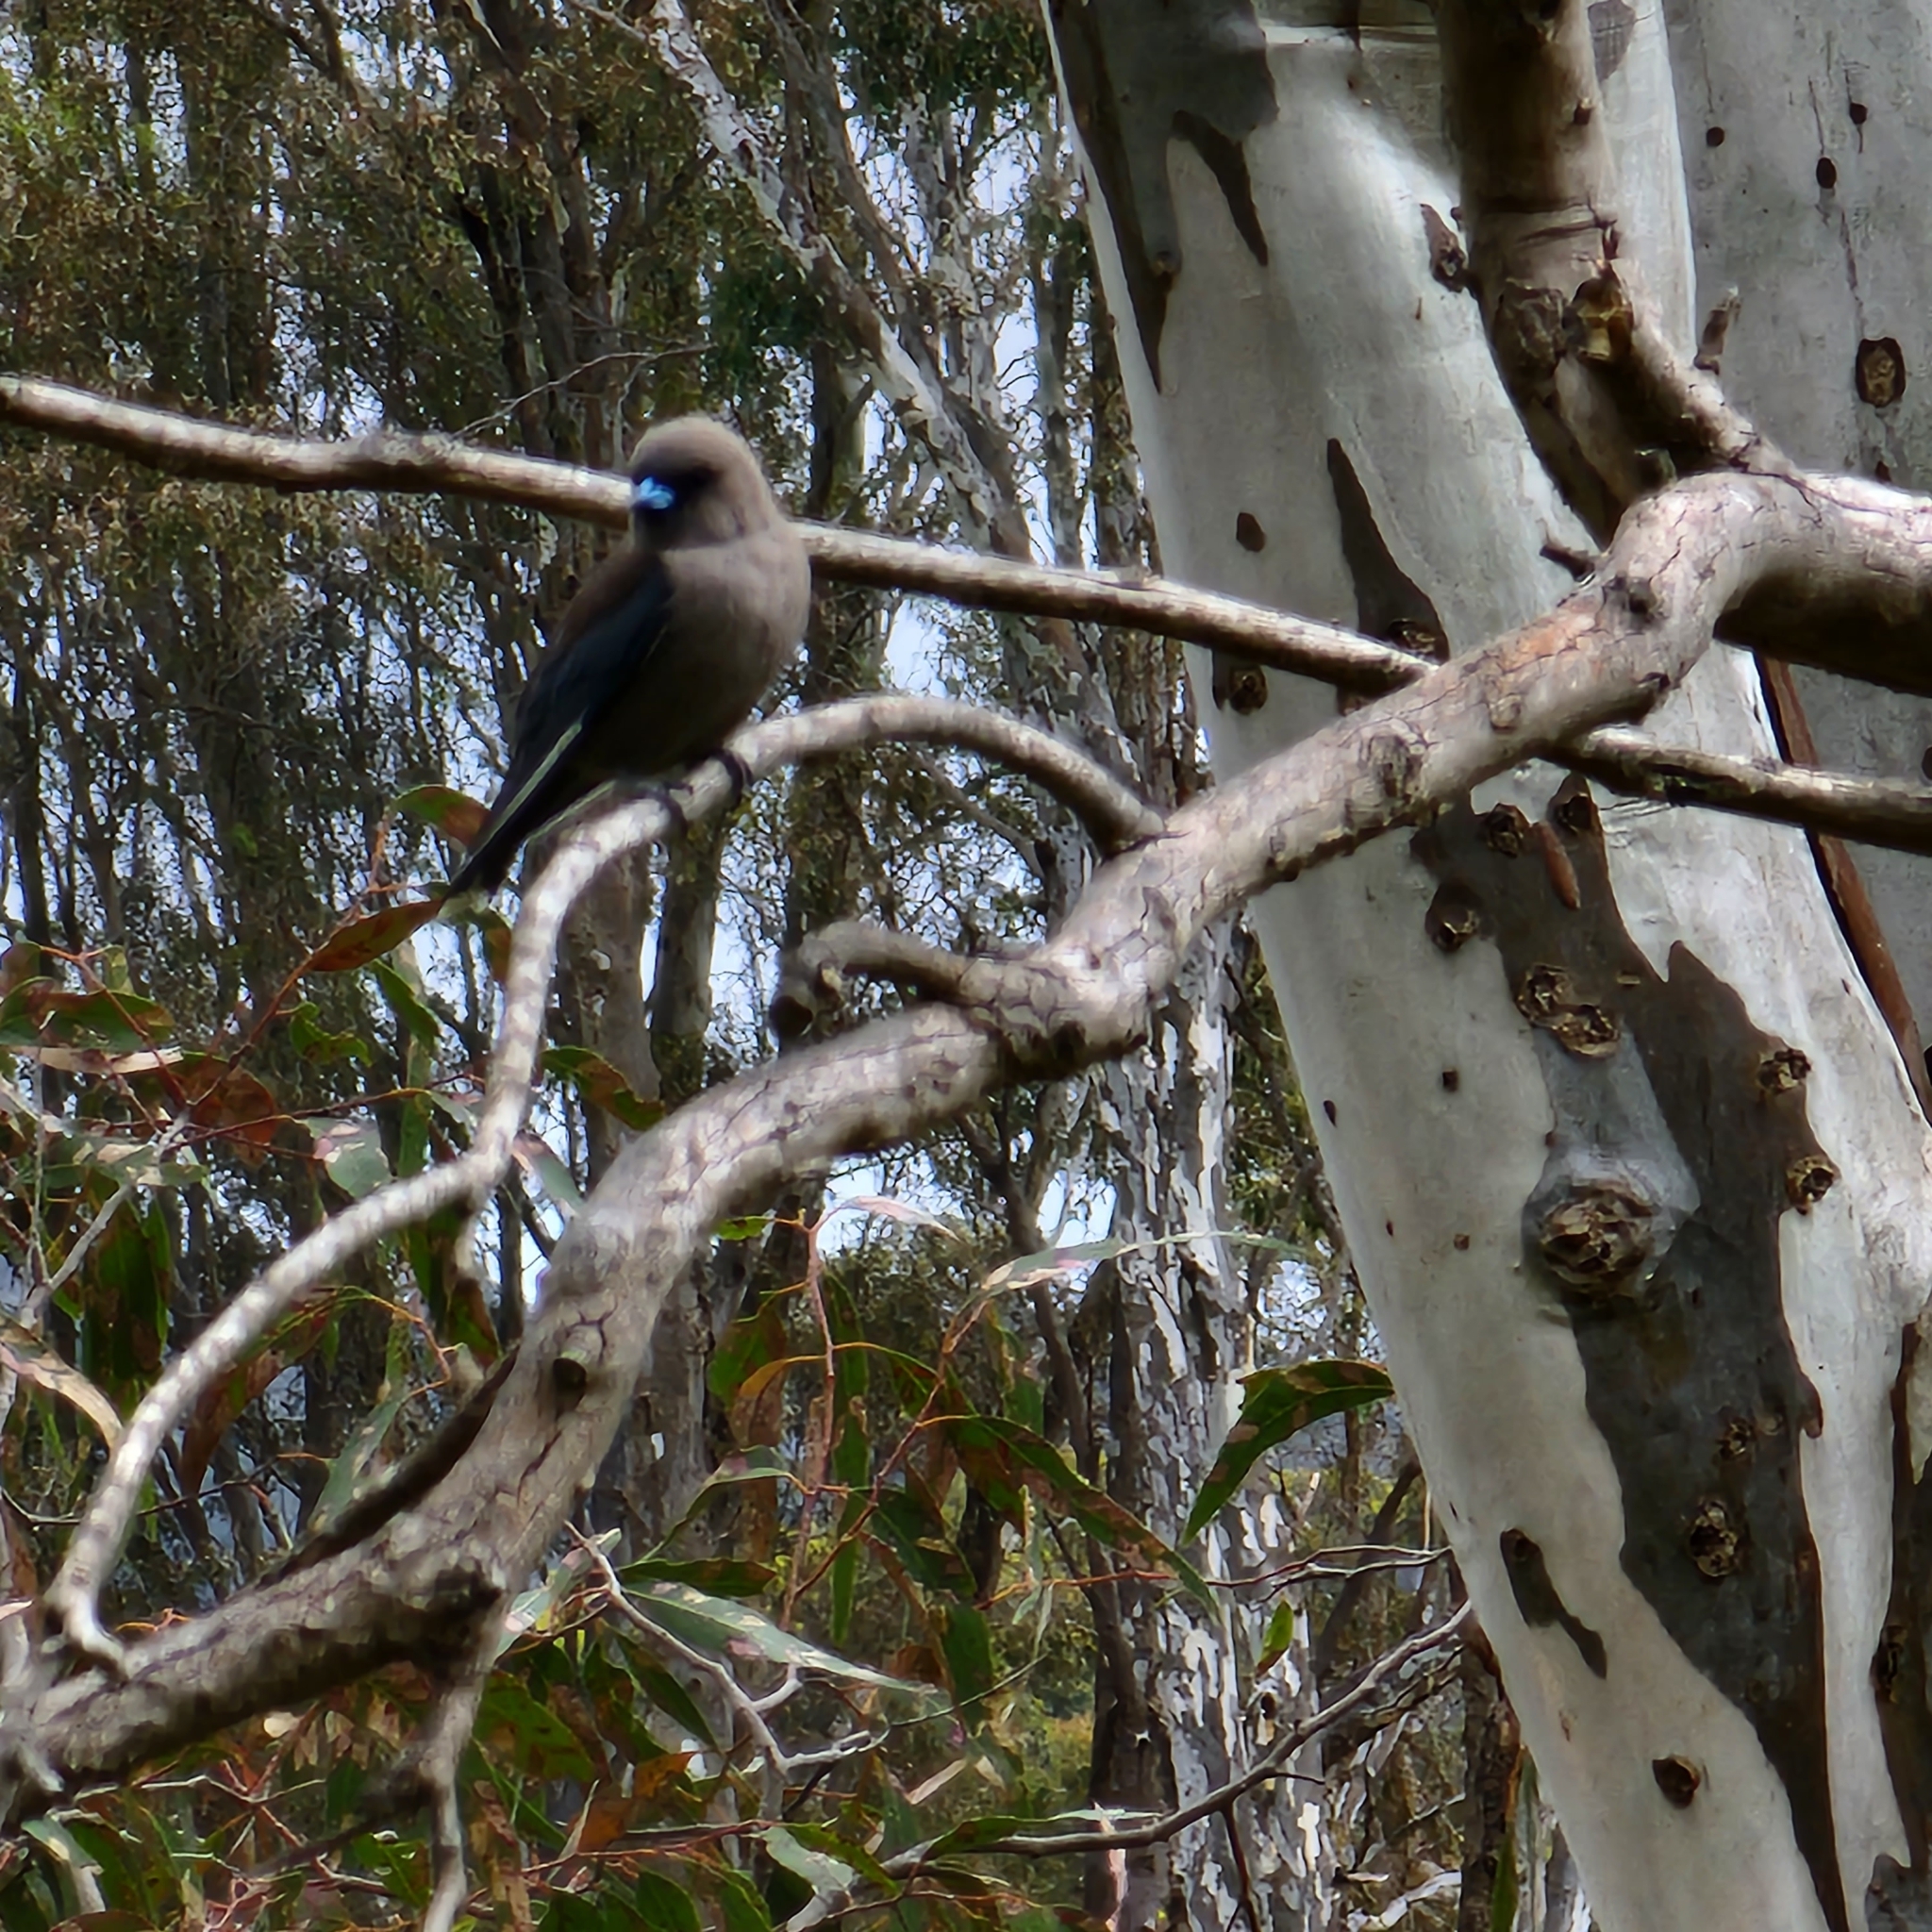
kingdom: Animalia
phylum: Chordata
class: Aves
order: Passeriformes
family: Artamidae
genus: Artamus
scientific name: Artamus cyanopterus
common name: Dusky woodswallow
